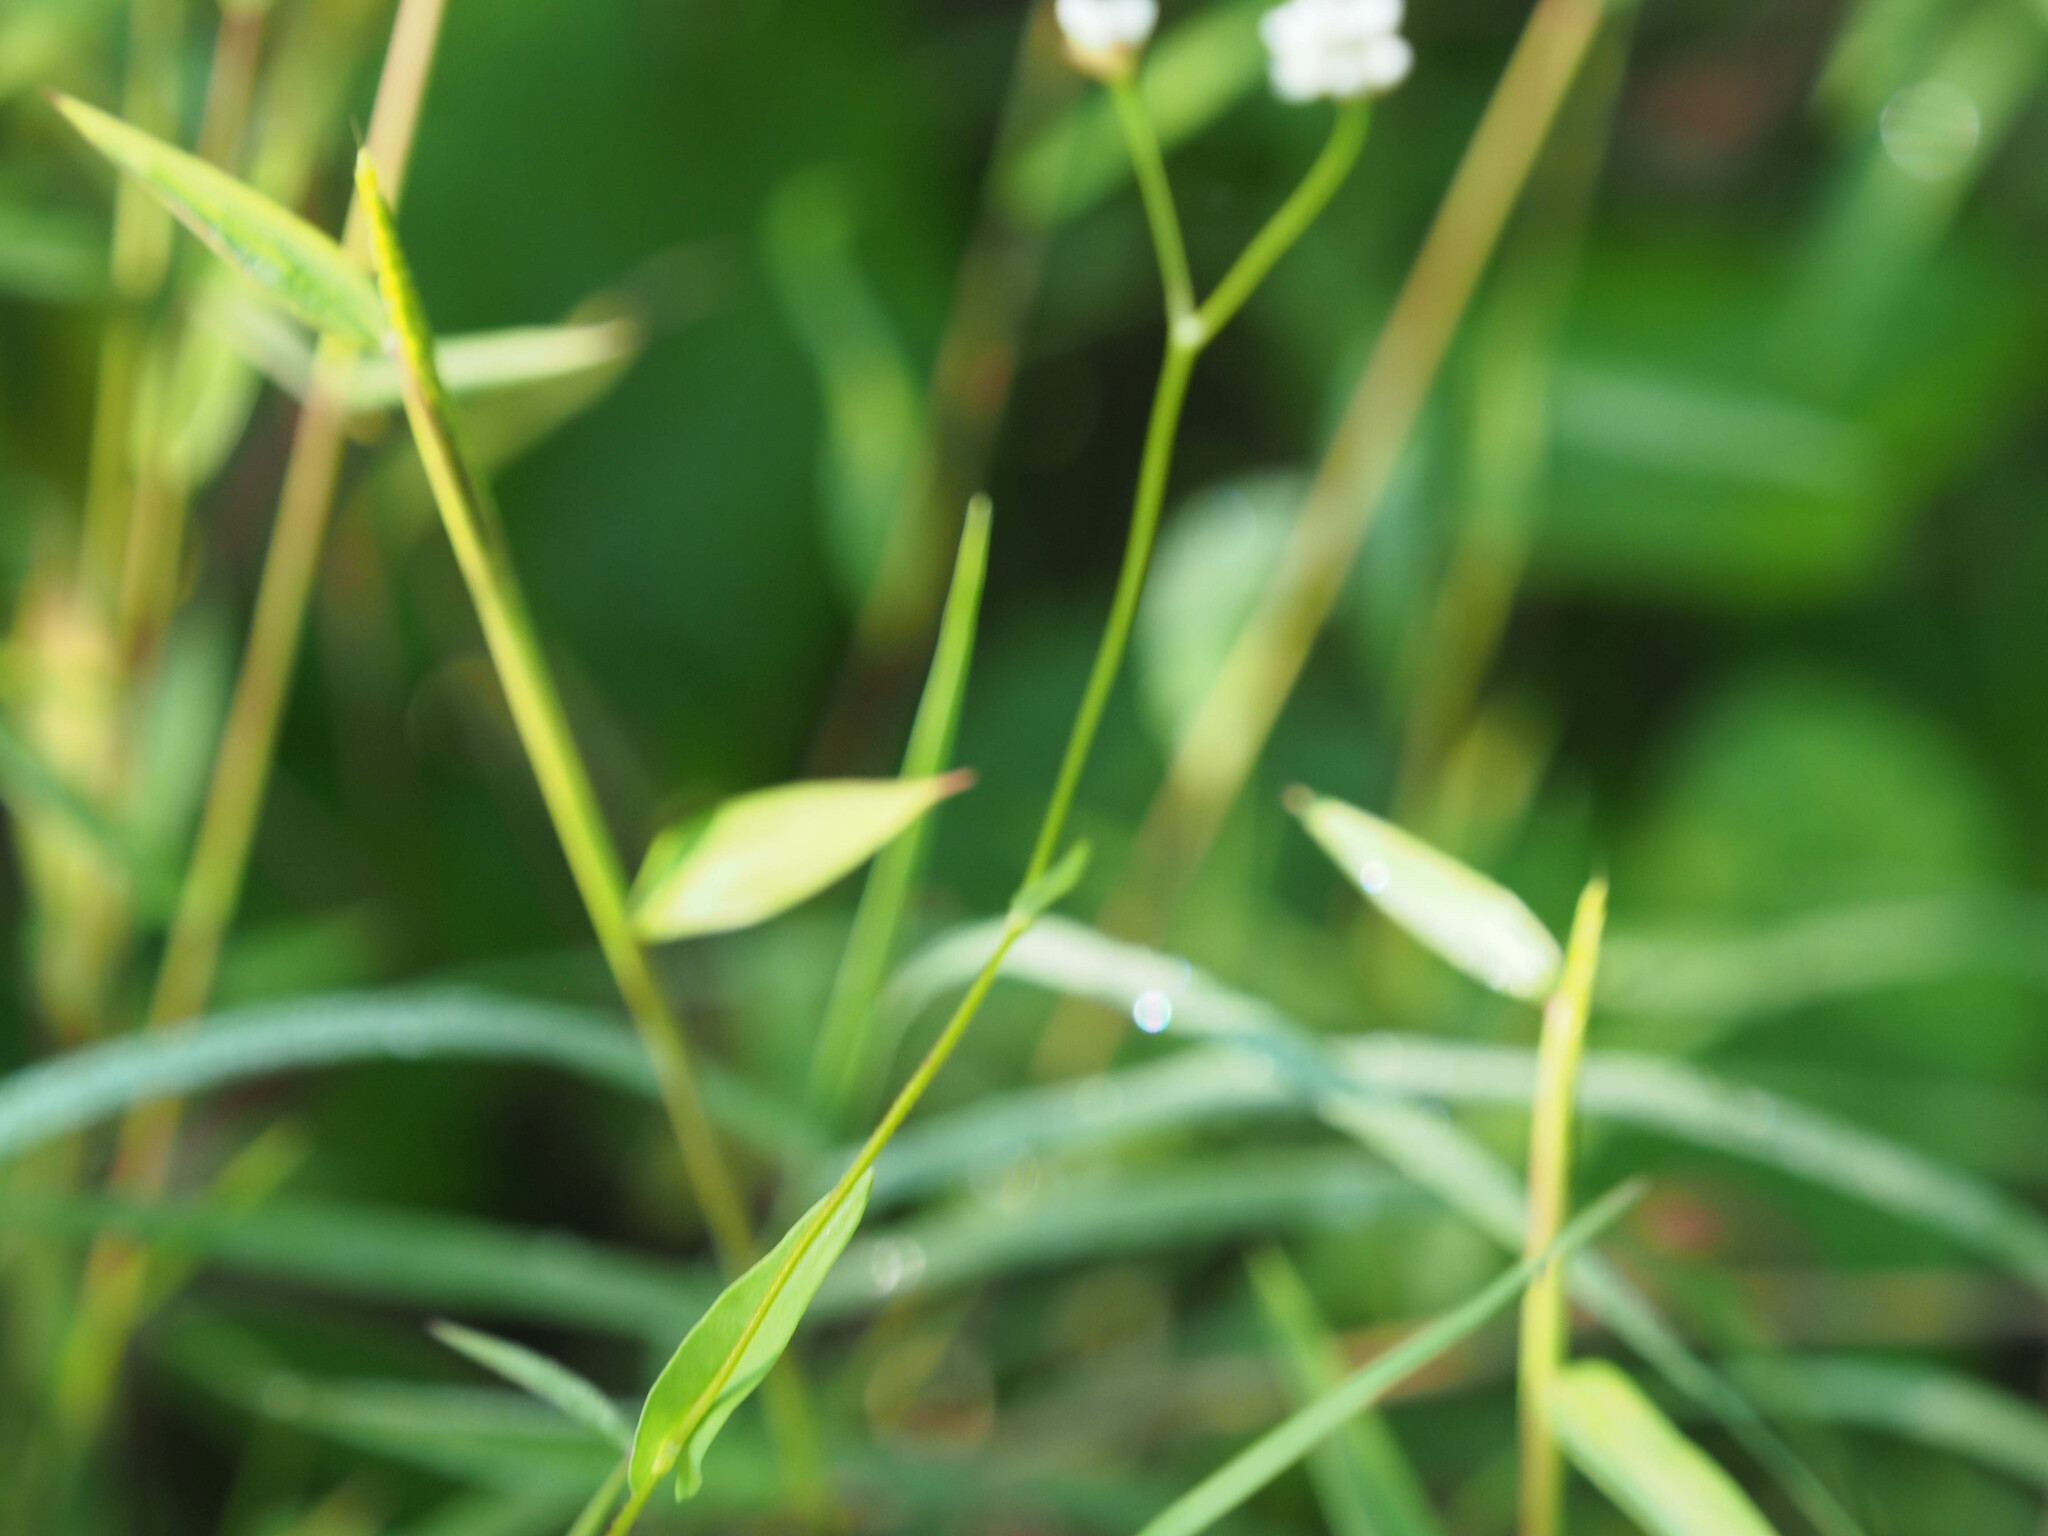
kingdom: Plantae
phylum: Tracheophyta
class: Magnoliopsida
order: Caryophyllales
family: Polygonaceae
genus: Persicaria
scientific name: Persicaria sagittata
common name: American tearthumb
